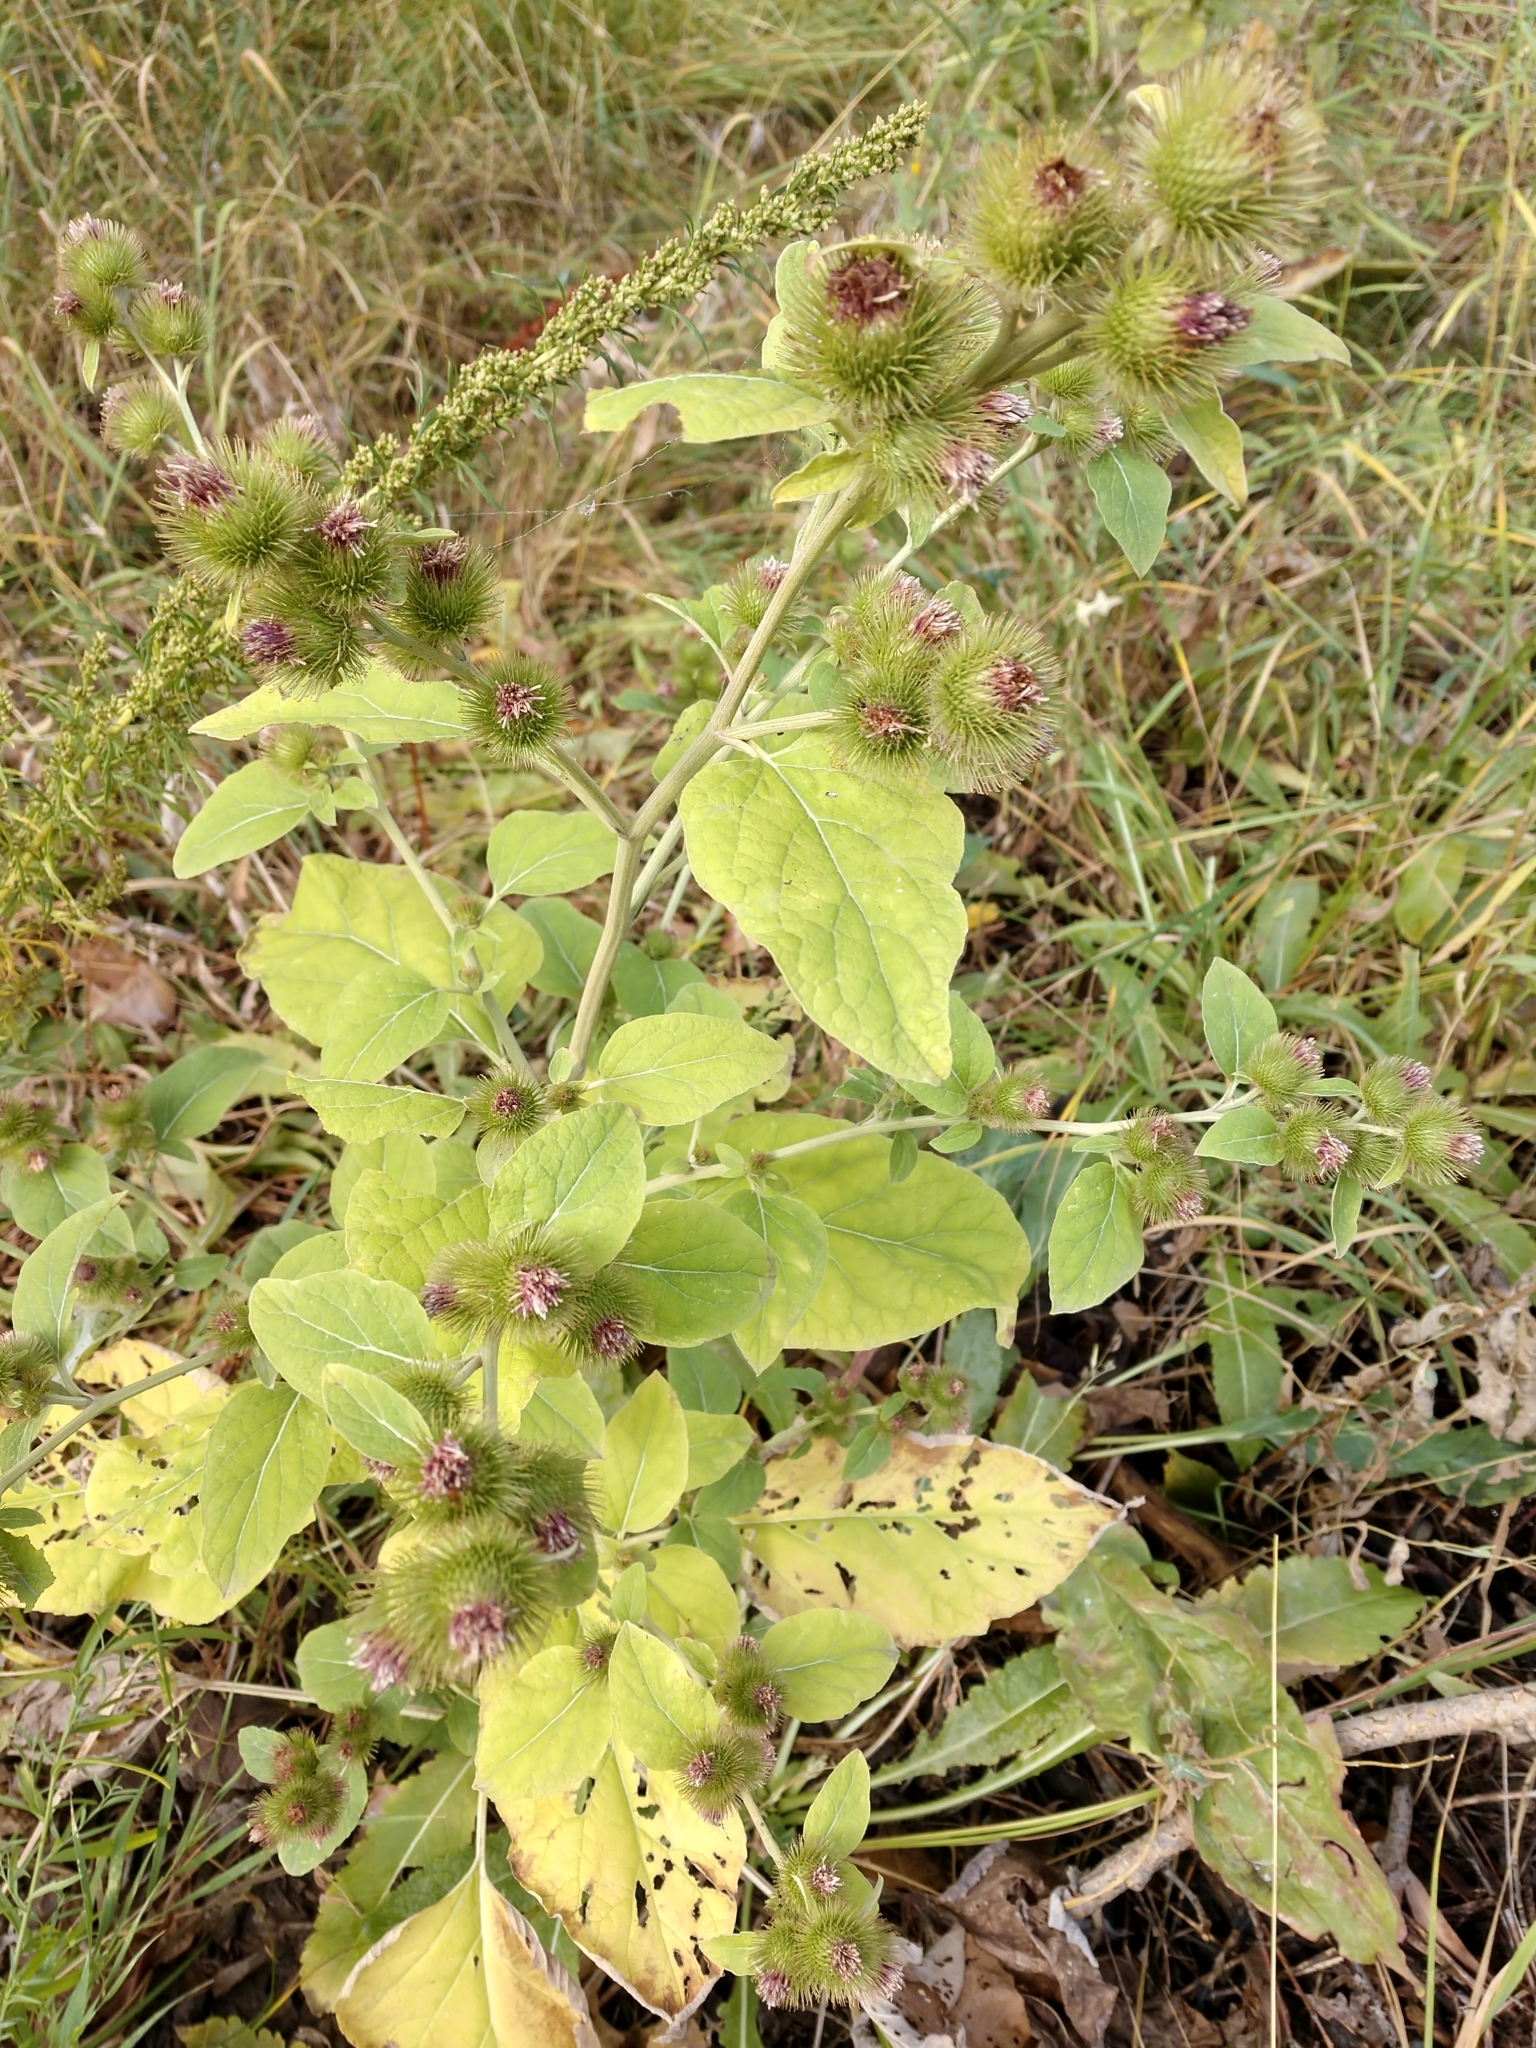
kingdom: Plantae
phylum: Tracheophyta
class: Magnoliopsida
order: Asterales
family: Asteraceae
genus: Arctium
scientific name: Arctium minus
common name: Lesser burdock
